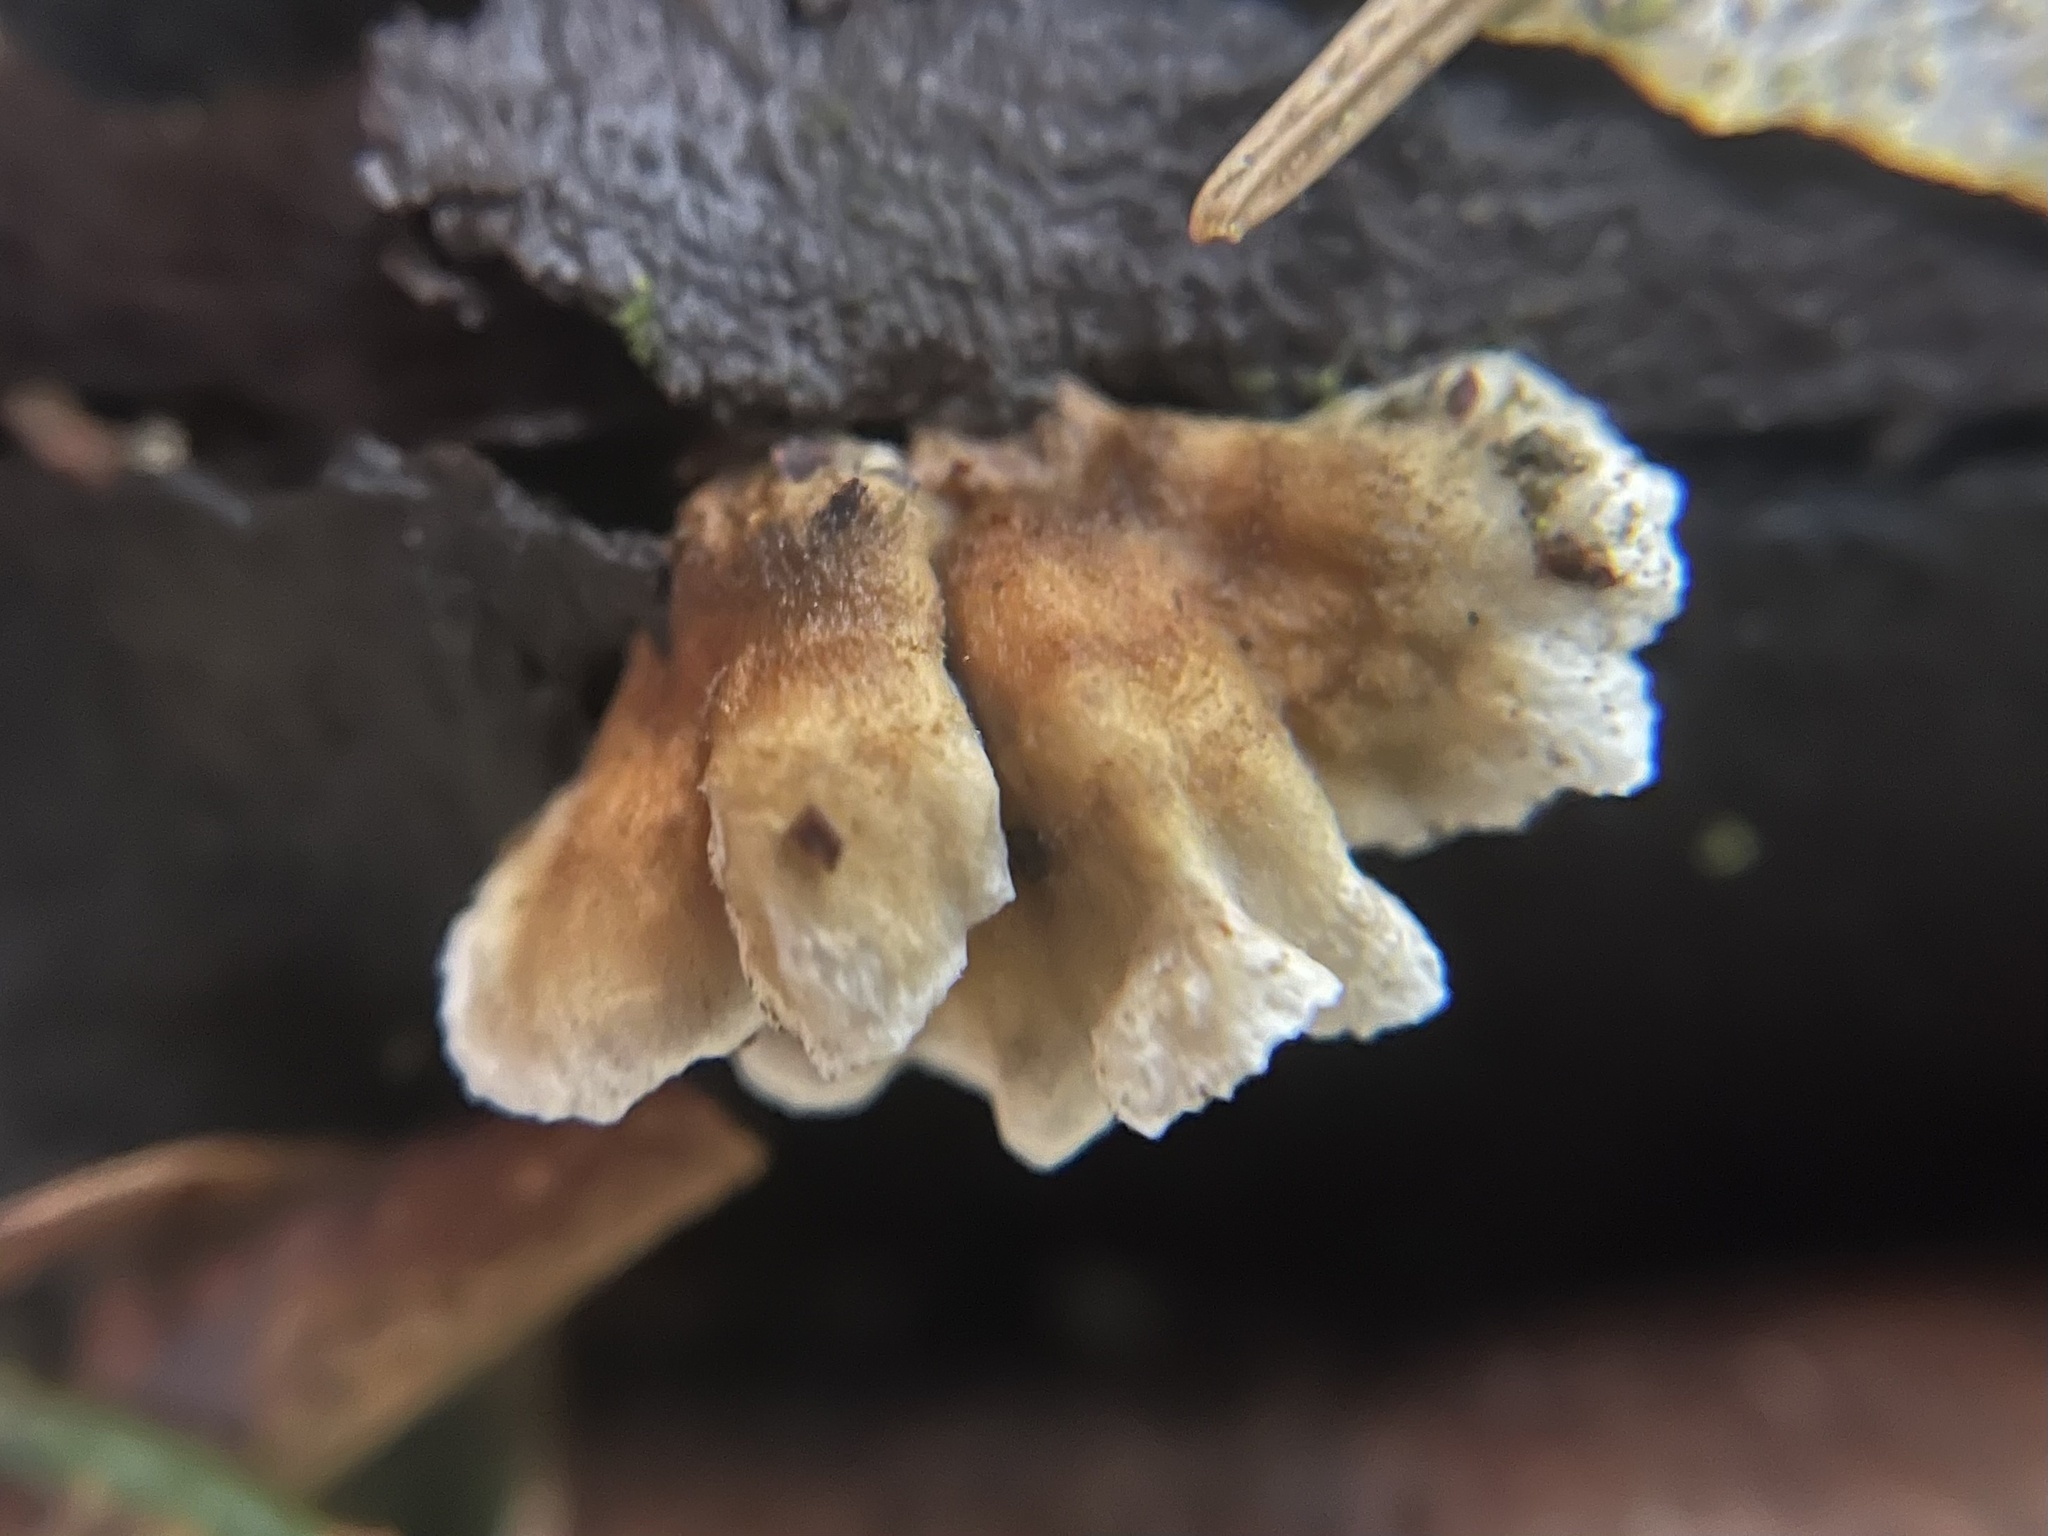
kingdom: Fungi
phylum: Basidiomycota
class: Agaricomycetes
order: Amylocorticiales
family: Amylocorticiaceae
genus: Plicaturopsis
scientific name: Plicaturopsis crispa
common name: Crimped gill
